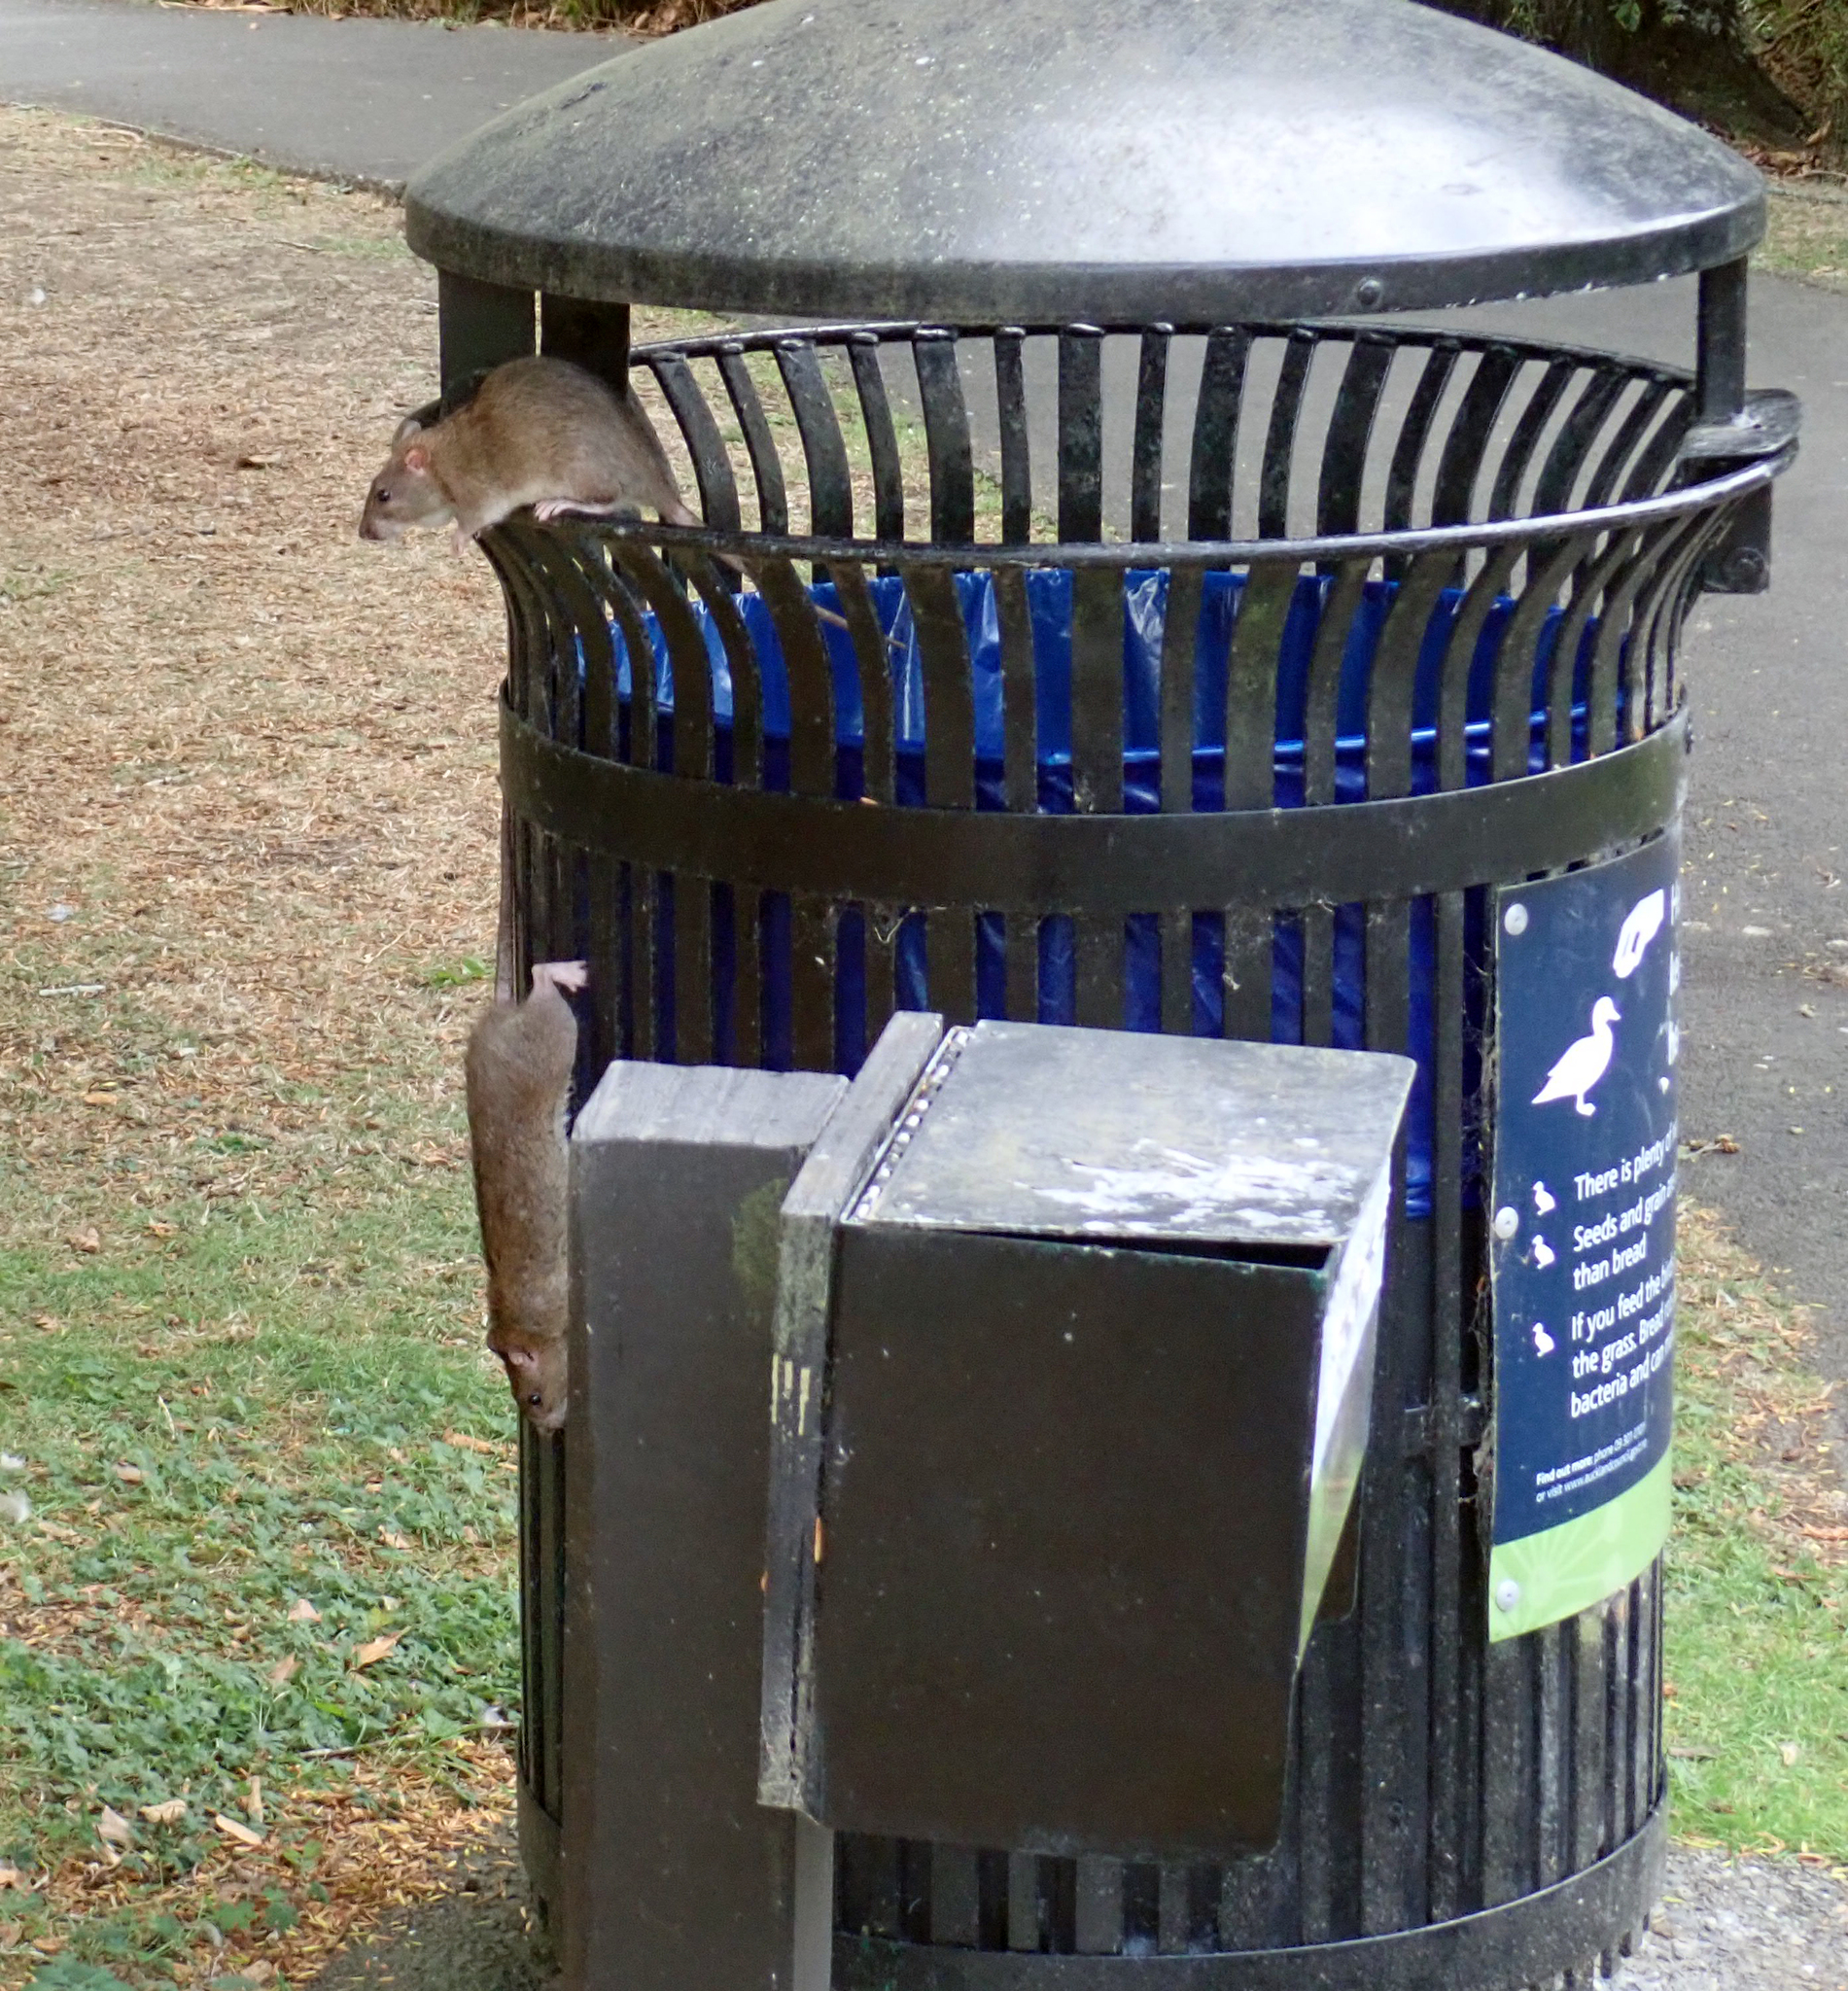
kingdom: Animalia
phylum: Chordata
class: Mammalia
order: Rodentia
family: Muridae
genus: Rattus
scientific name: Rattus norvegicus
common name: Brown rat
